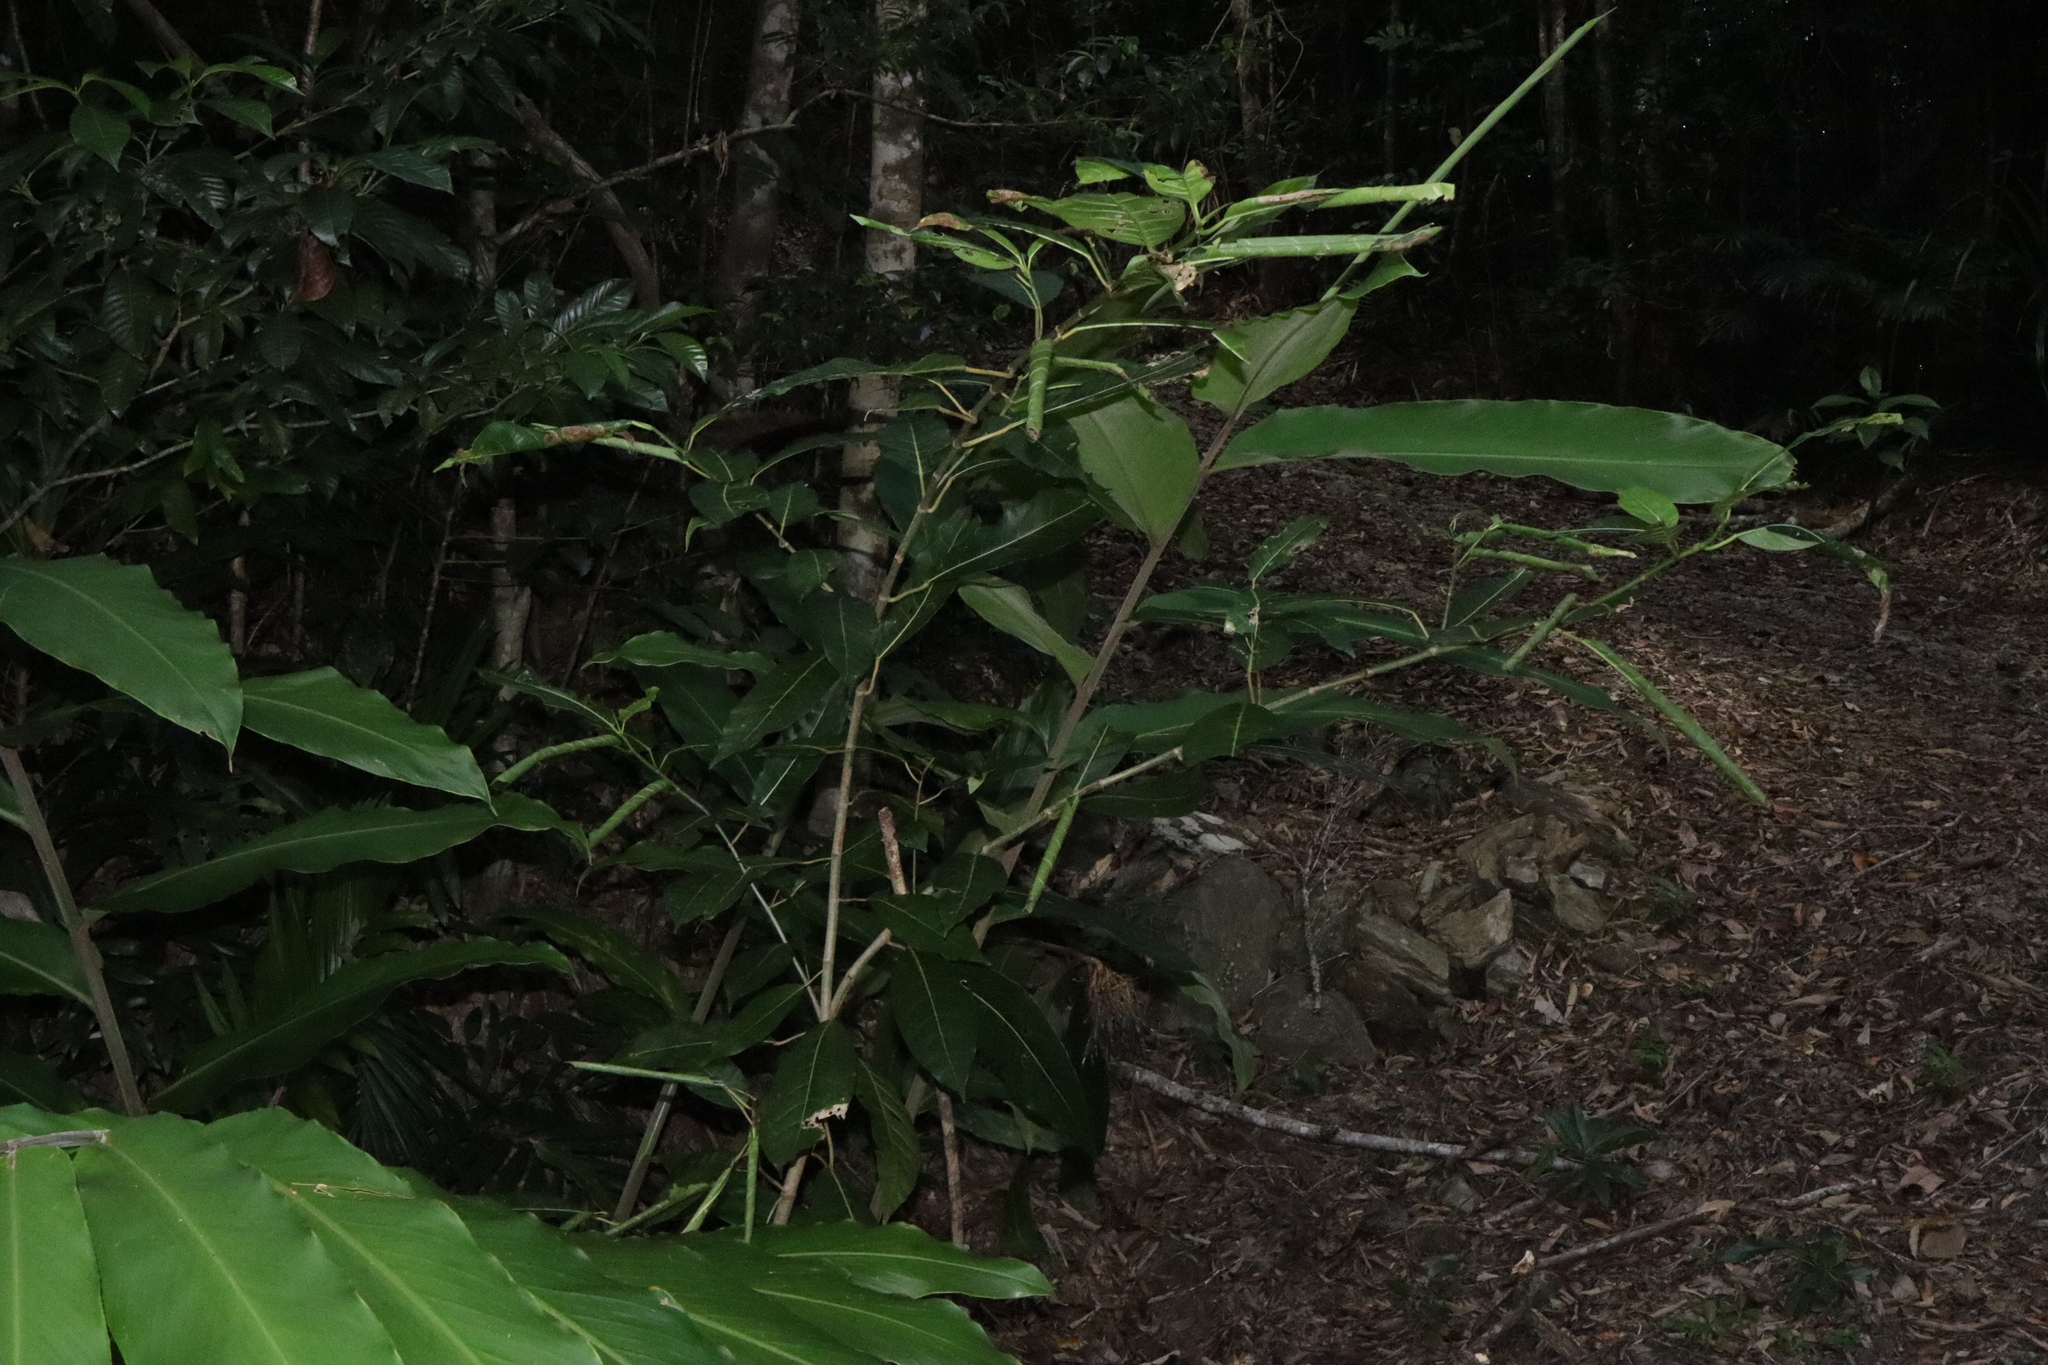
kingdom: Plantae
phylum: Tracheophyta
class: Magnoliopsida
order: Rosales
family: Moraceae
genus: Ficus
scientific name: Ficus septica
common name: Septic fig
